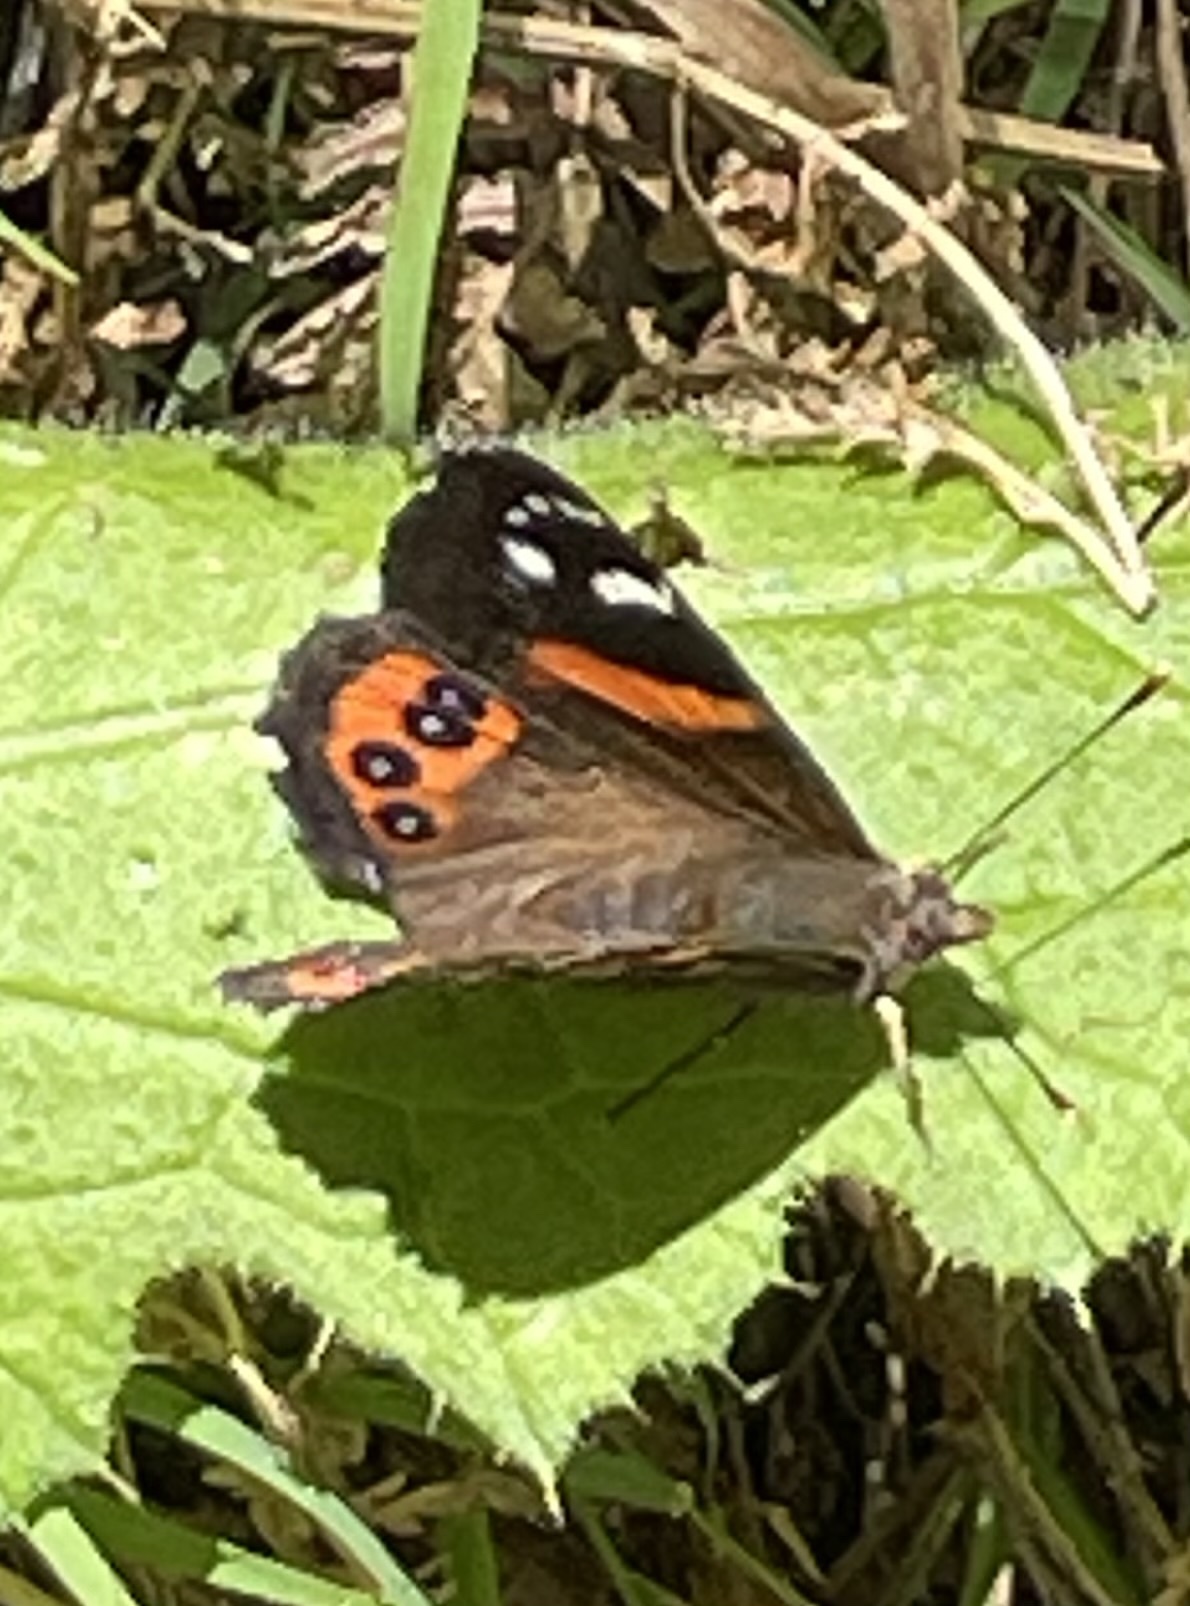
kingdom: Animalia
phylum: Arthropoda
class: Insecta
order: Lepidoptera
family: Nymphalidae
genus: Vanessa
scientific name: Vanessa gonerilla
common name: New zealand red admiral
